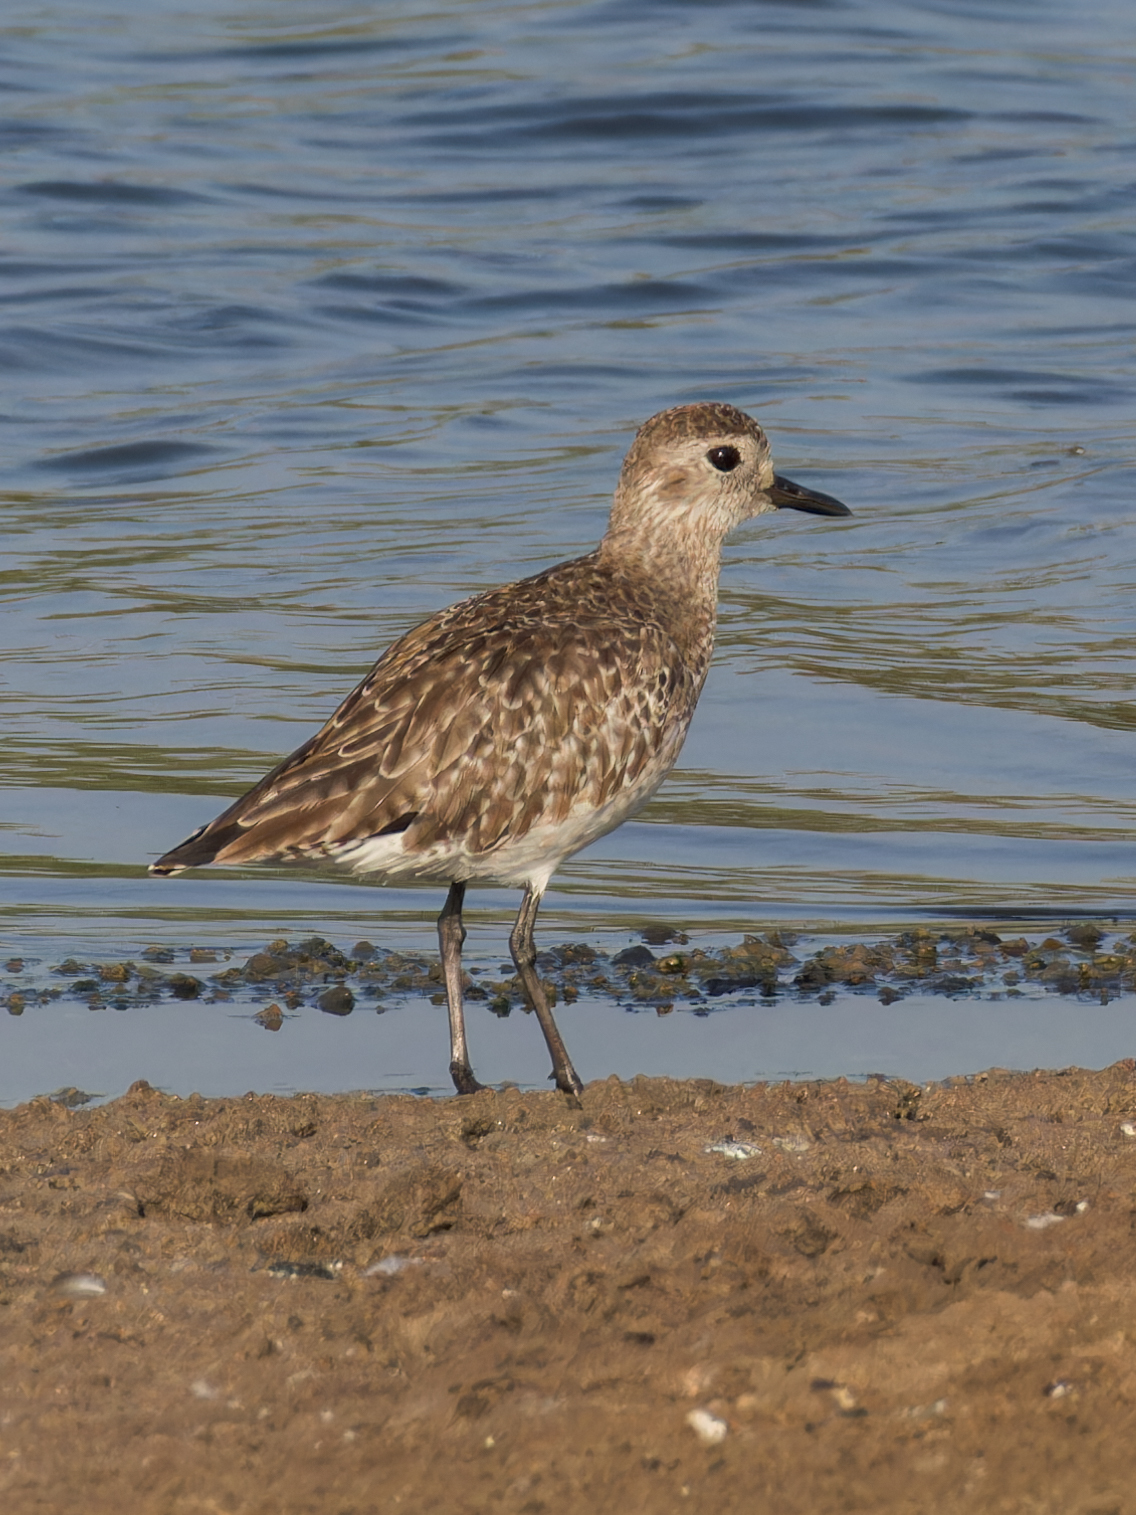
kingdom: Animalia
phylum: Chordata
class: Aves
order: Charadriiformes
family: Charadriidae
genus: Pluvialis
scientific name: Pluvialis squatarola
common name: Grey plover
